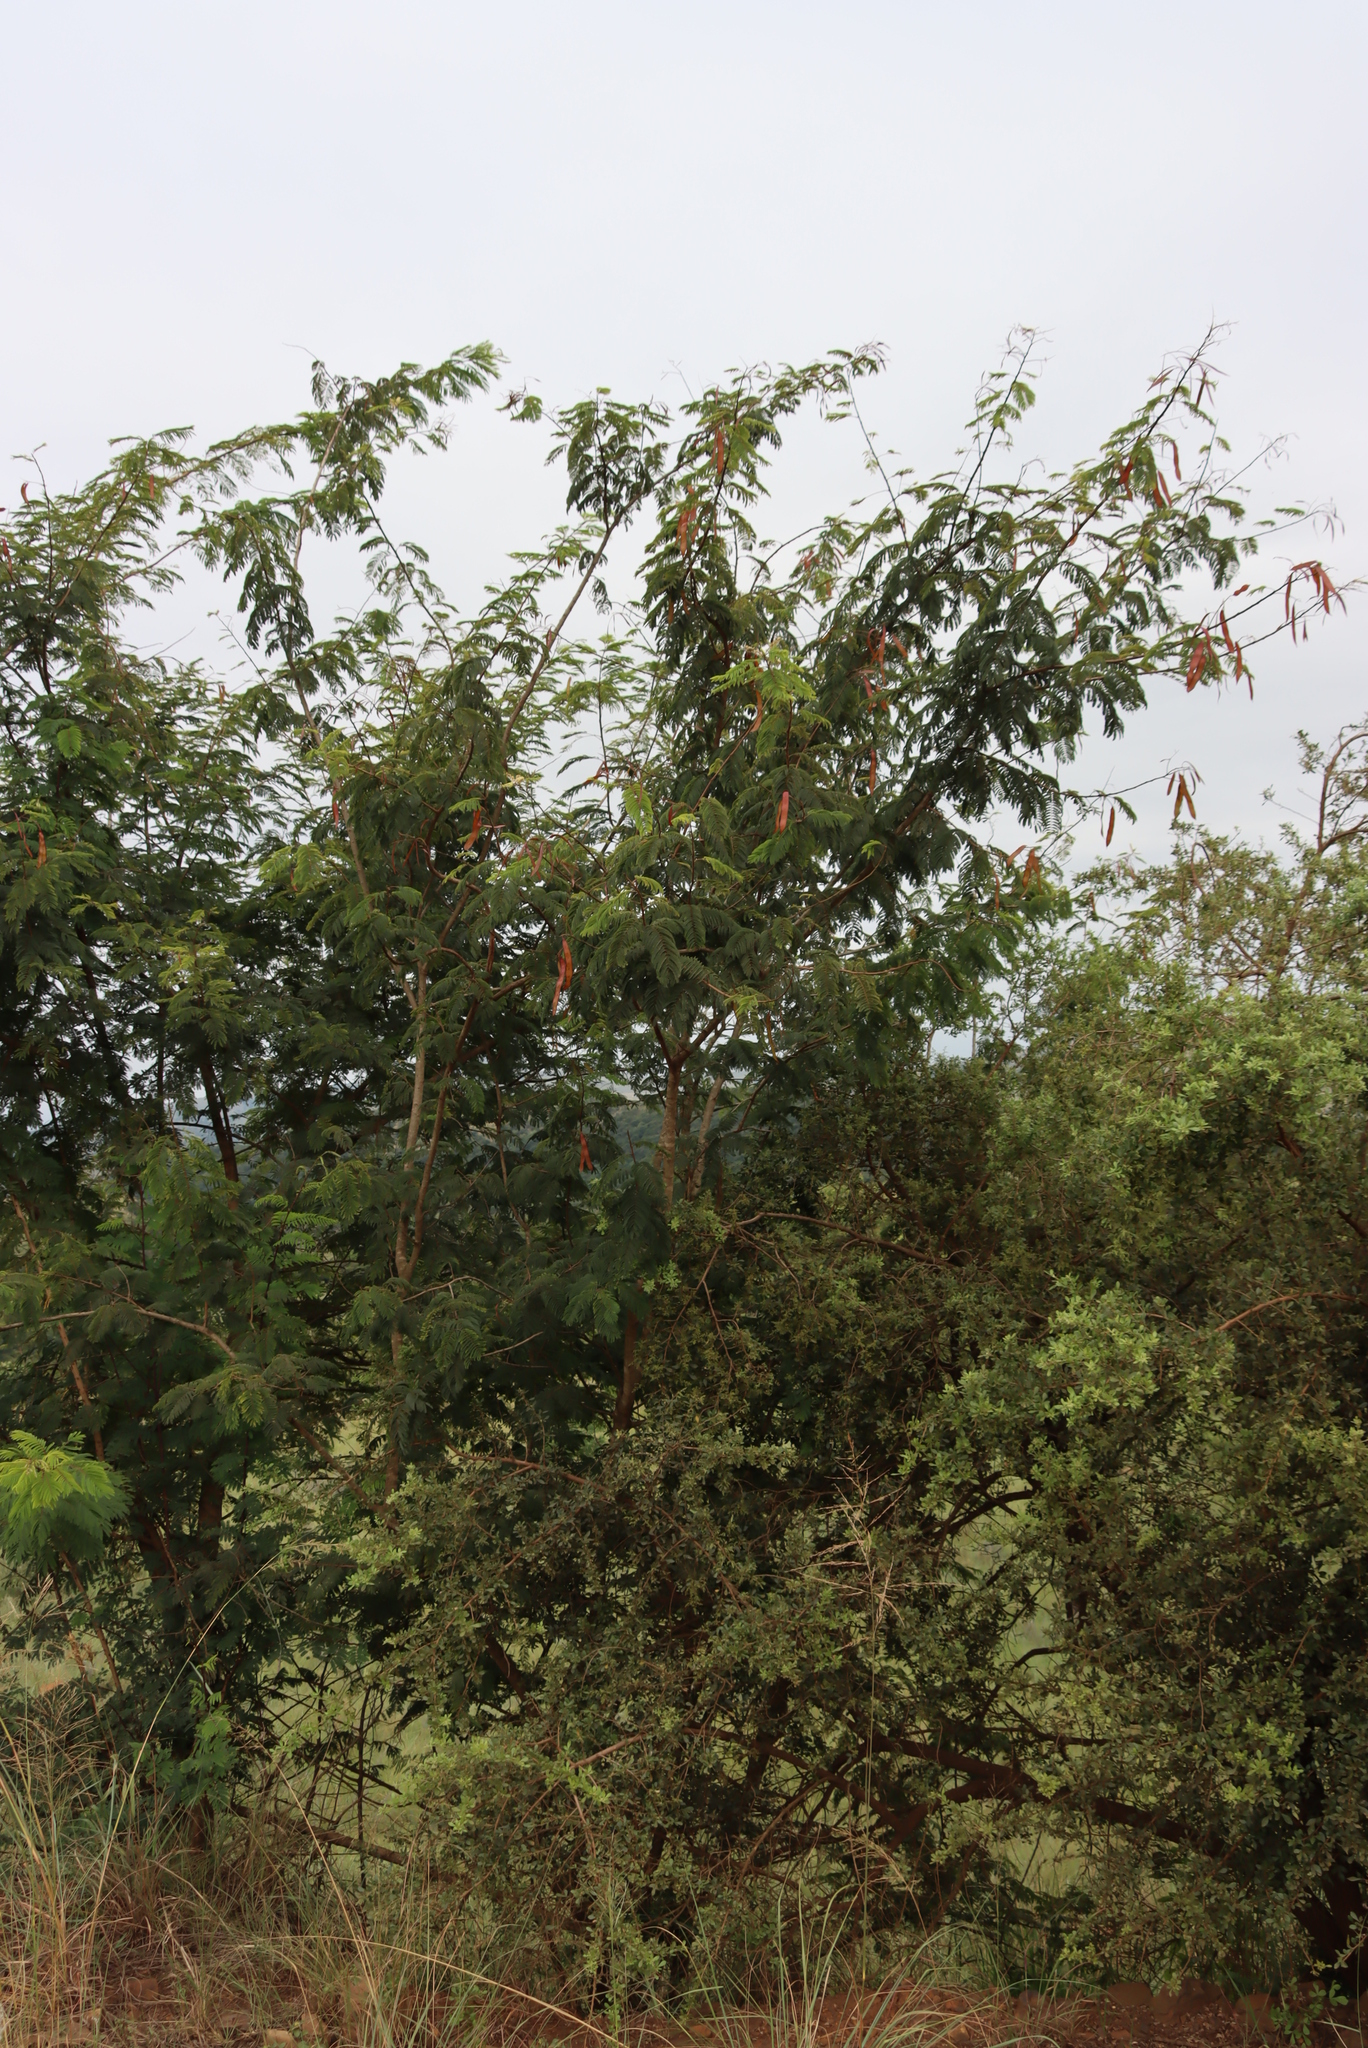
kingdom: Plantae
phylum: Tracheophyta
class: Magnoliopsida
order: Fabales
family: Fabaceae
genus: Senegalia
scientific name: Senegalia ataxacantha
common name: Flame acacia
